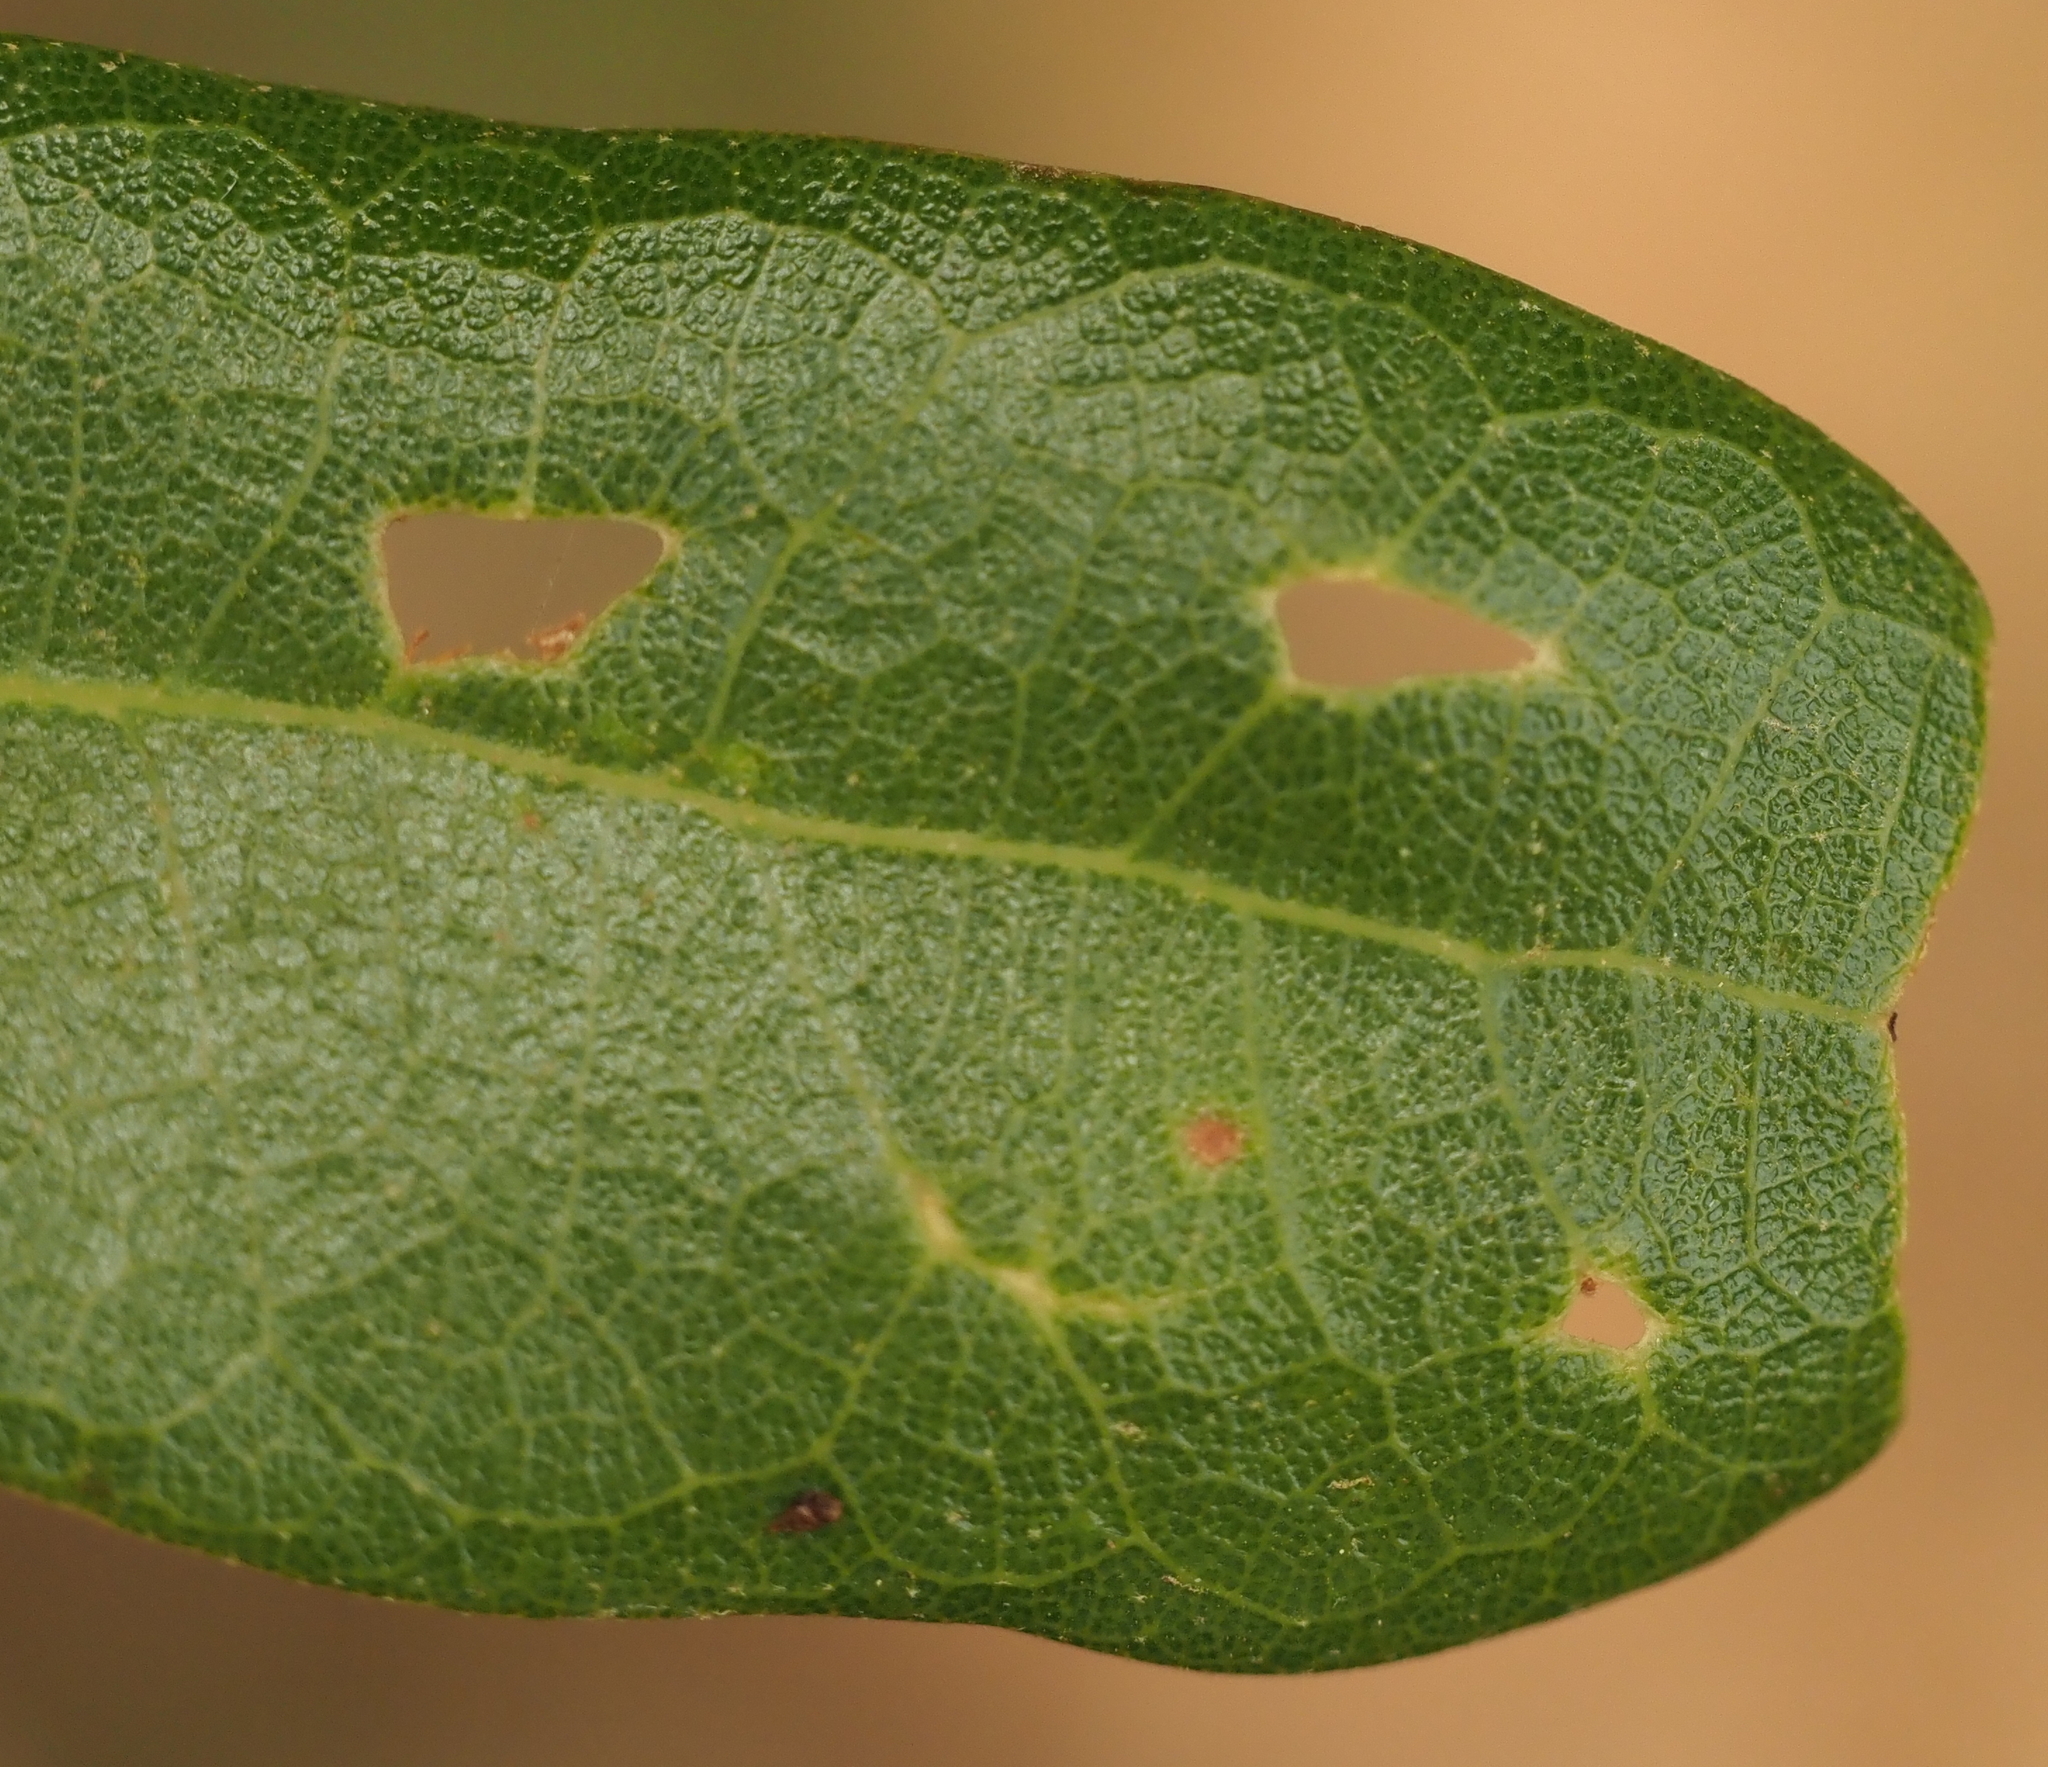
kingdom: Animalia
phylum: Arthropoda
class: Insecta
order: Hymenoptera
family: Cynipidae
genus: Belonocnema
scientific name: Belonocnema kinseyi
